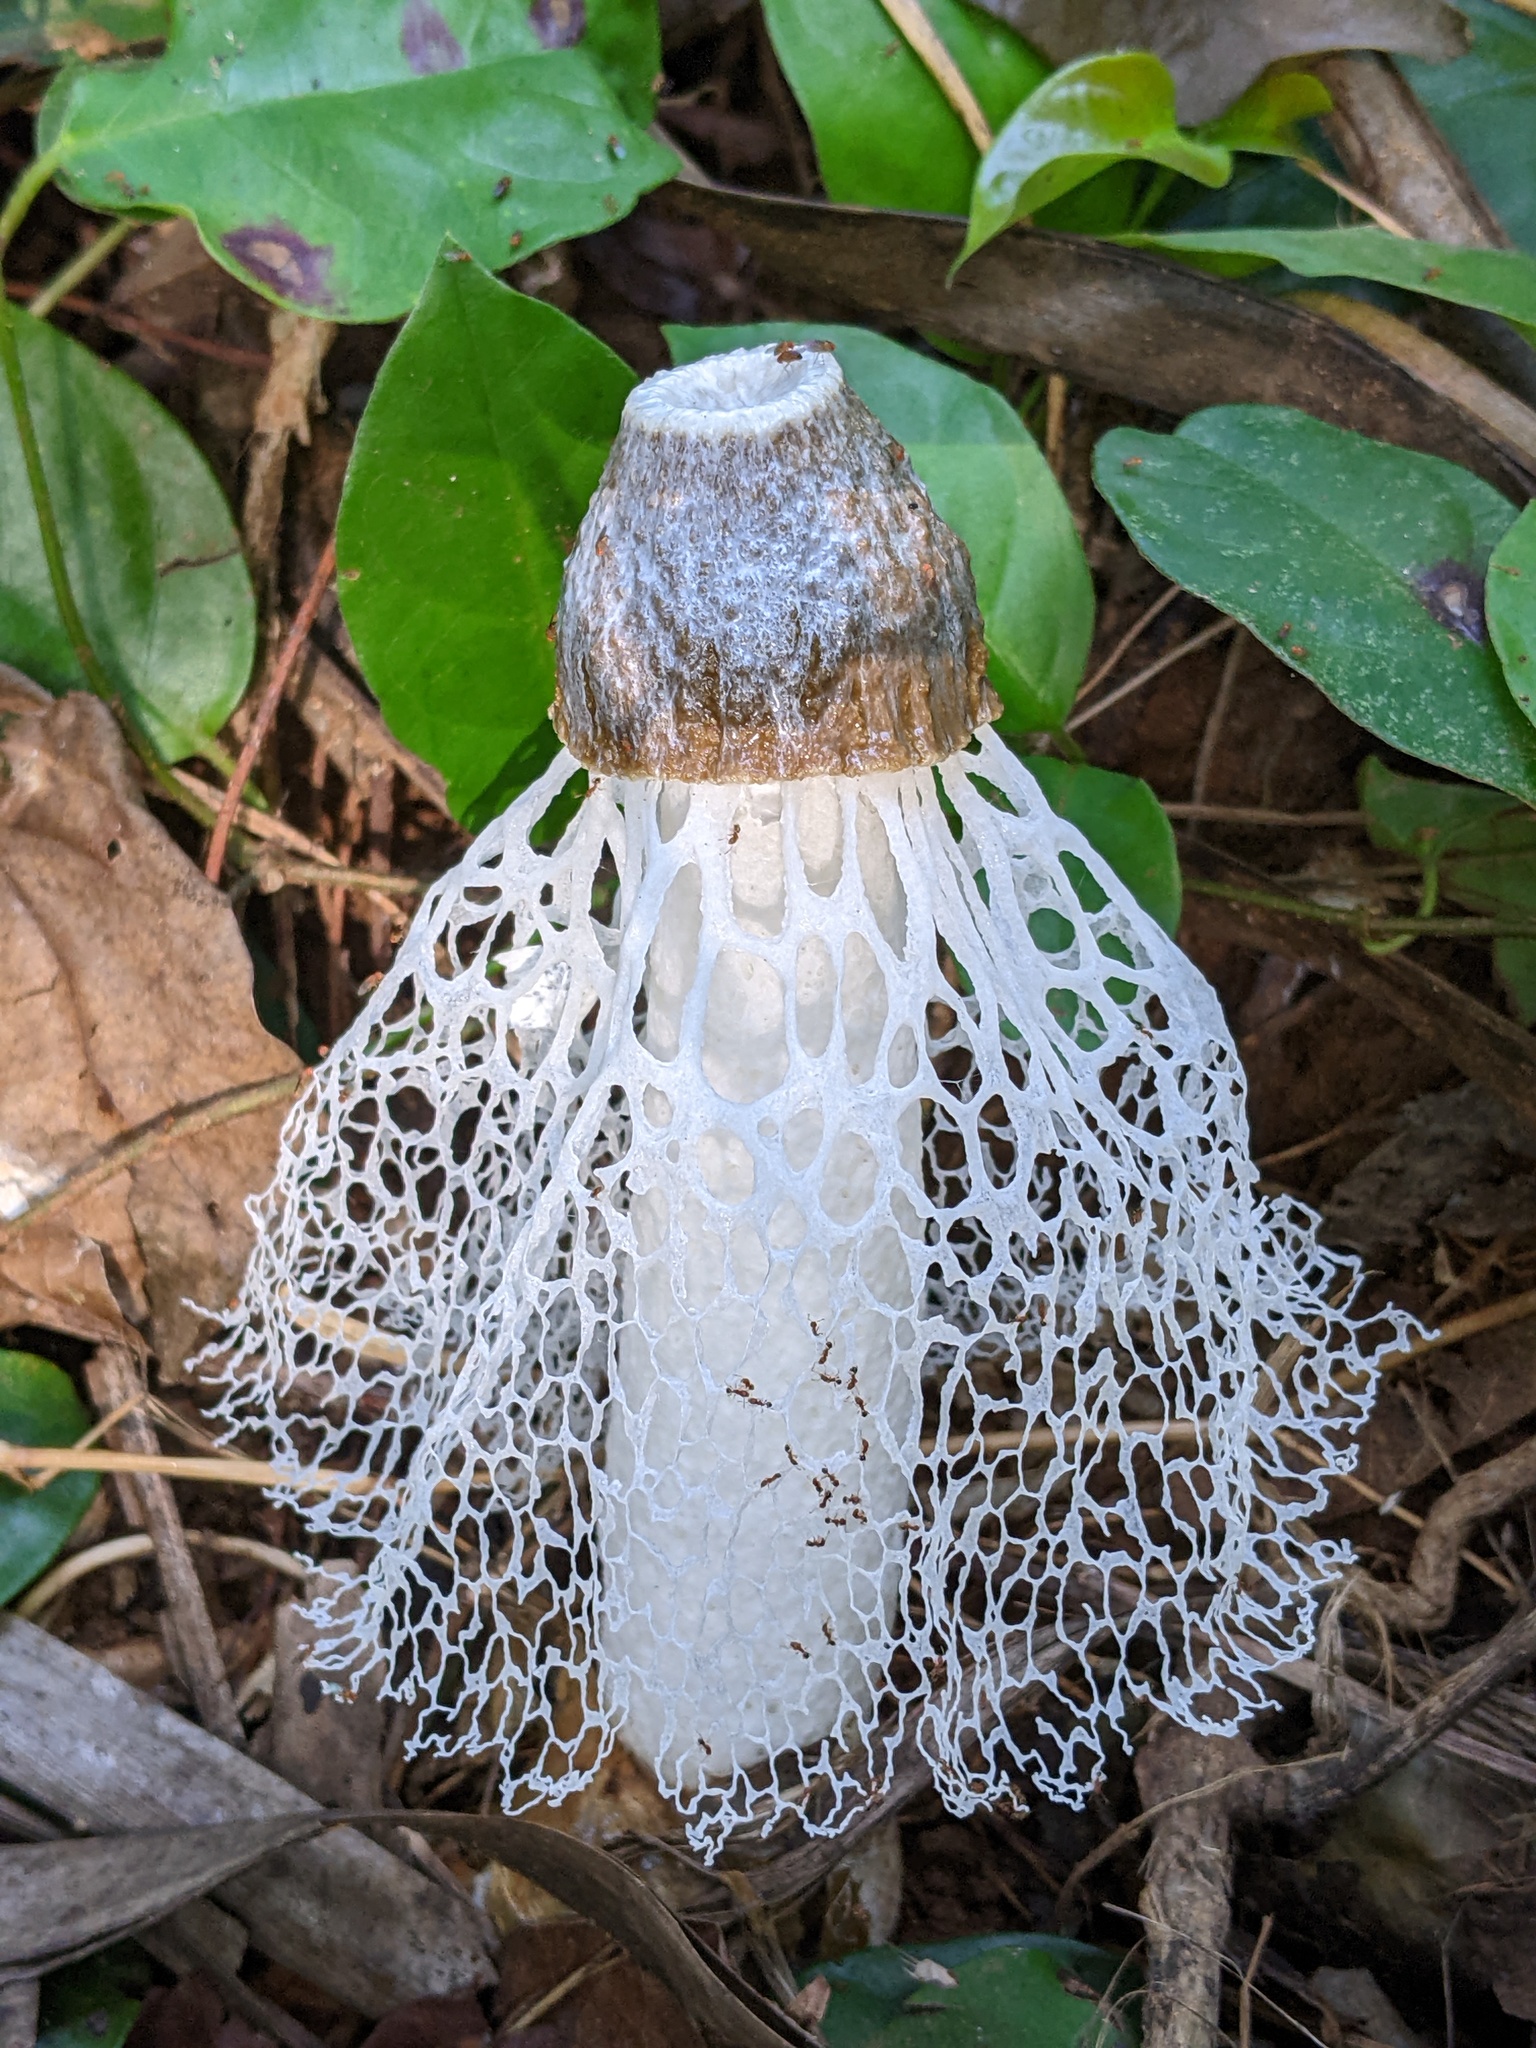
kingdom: Fungi
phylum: Basidiomycota
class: Agaricomycetes
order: Phallales
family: Phallaceae
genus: Phallus
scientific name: Phallus merulinus
